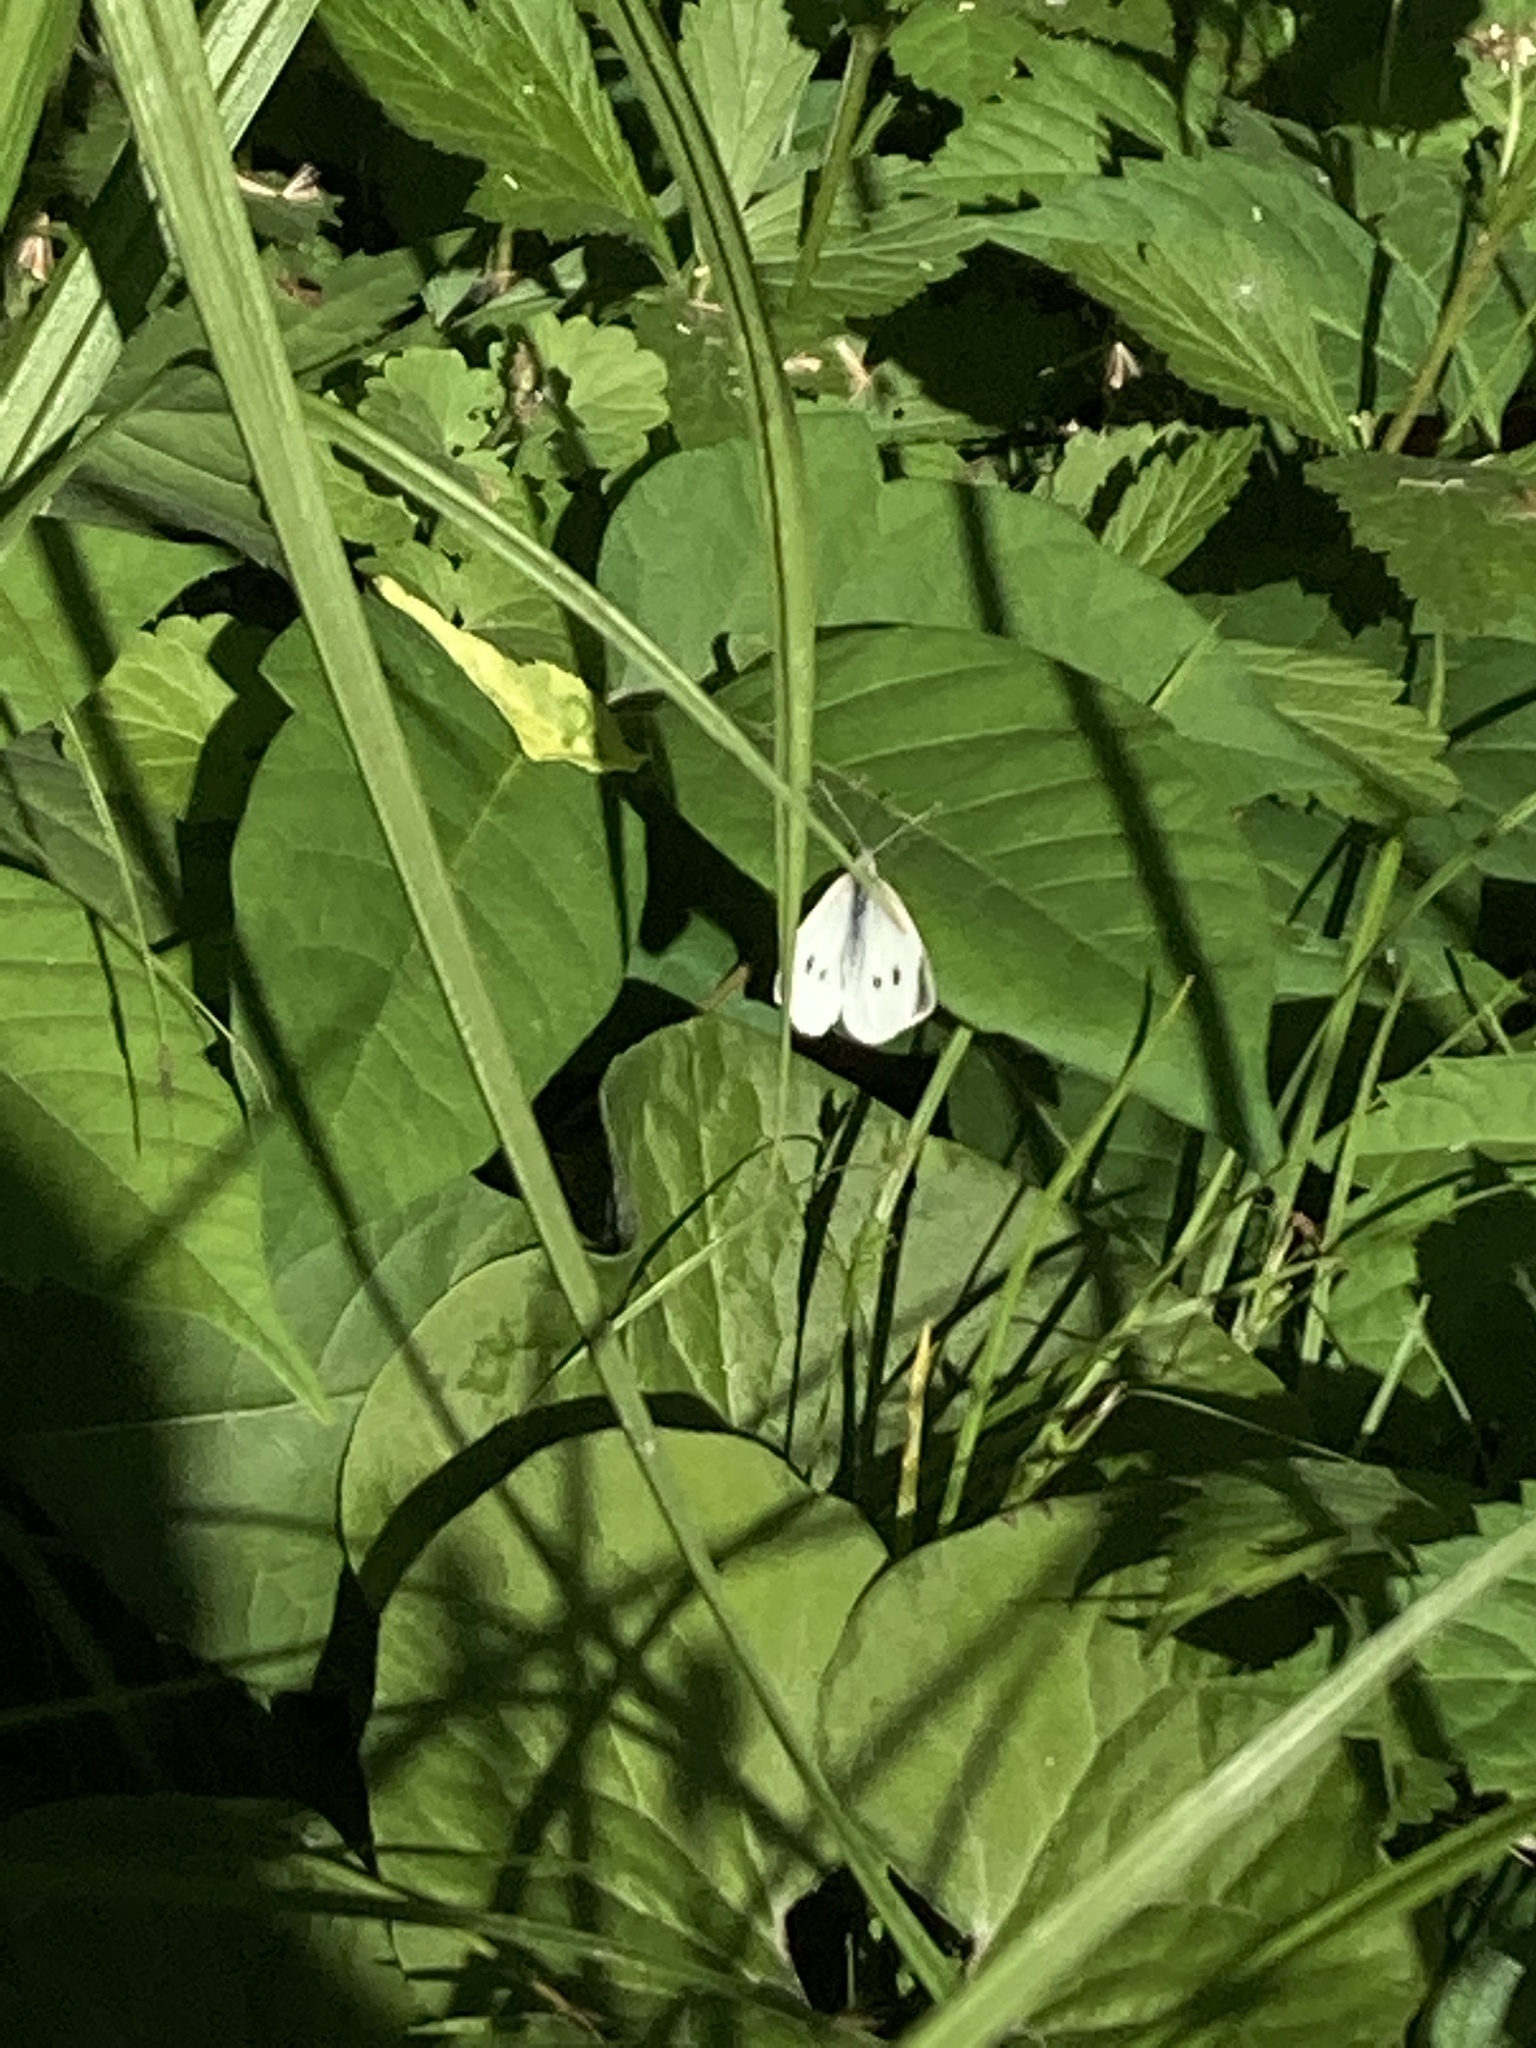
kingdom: Animalia
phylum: Arthropoda
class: Insecta
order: Lepidoptera
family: Pieridae
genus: Pieris
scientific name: Pieris rapae
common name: Small white
